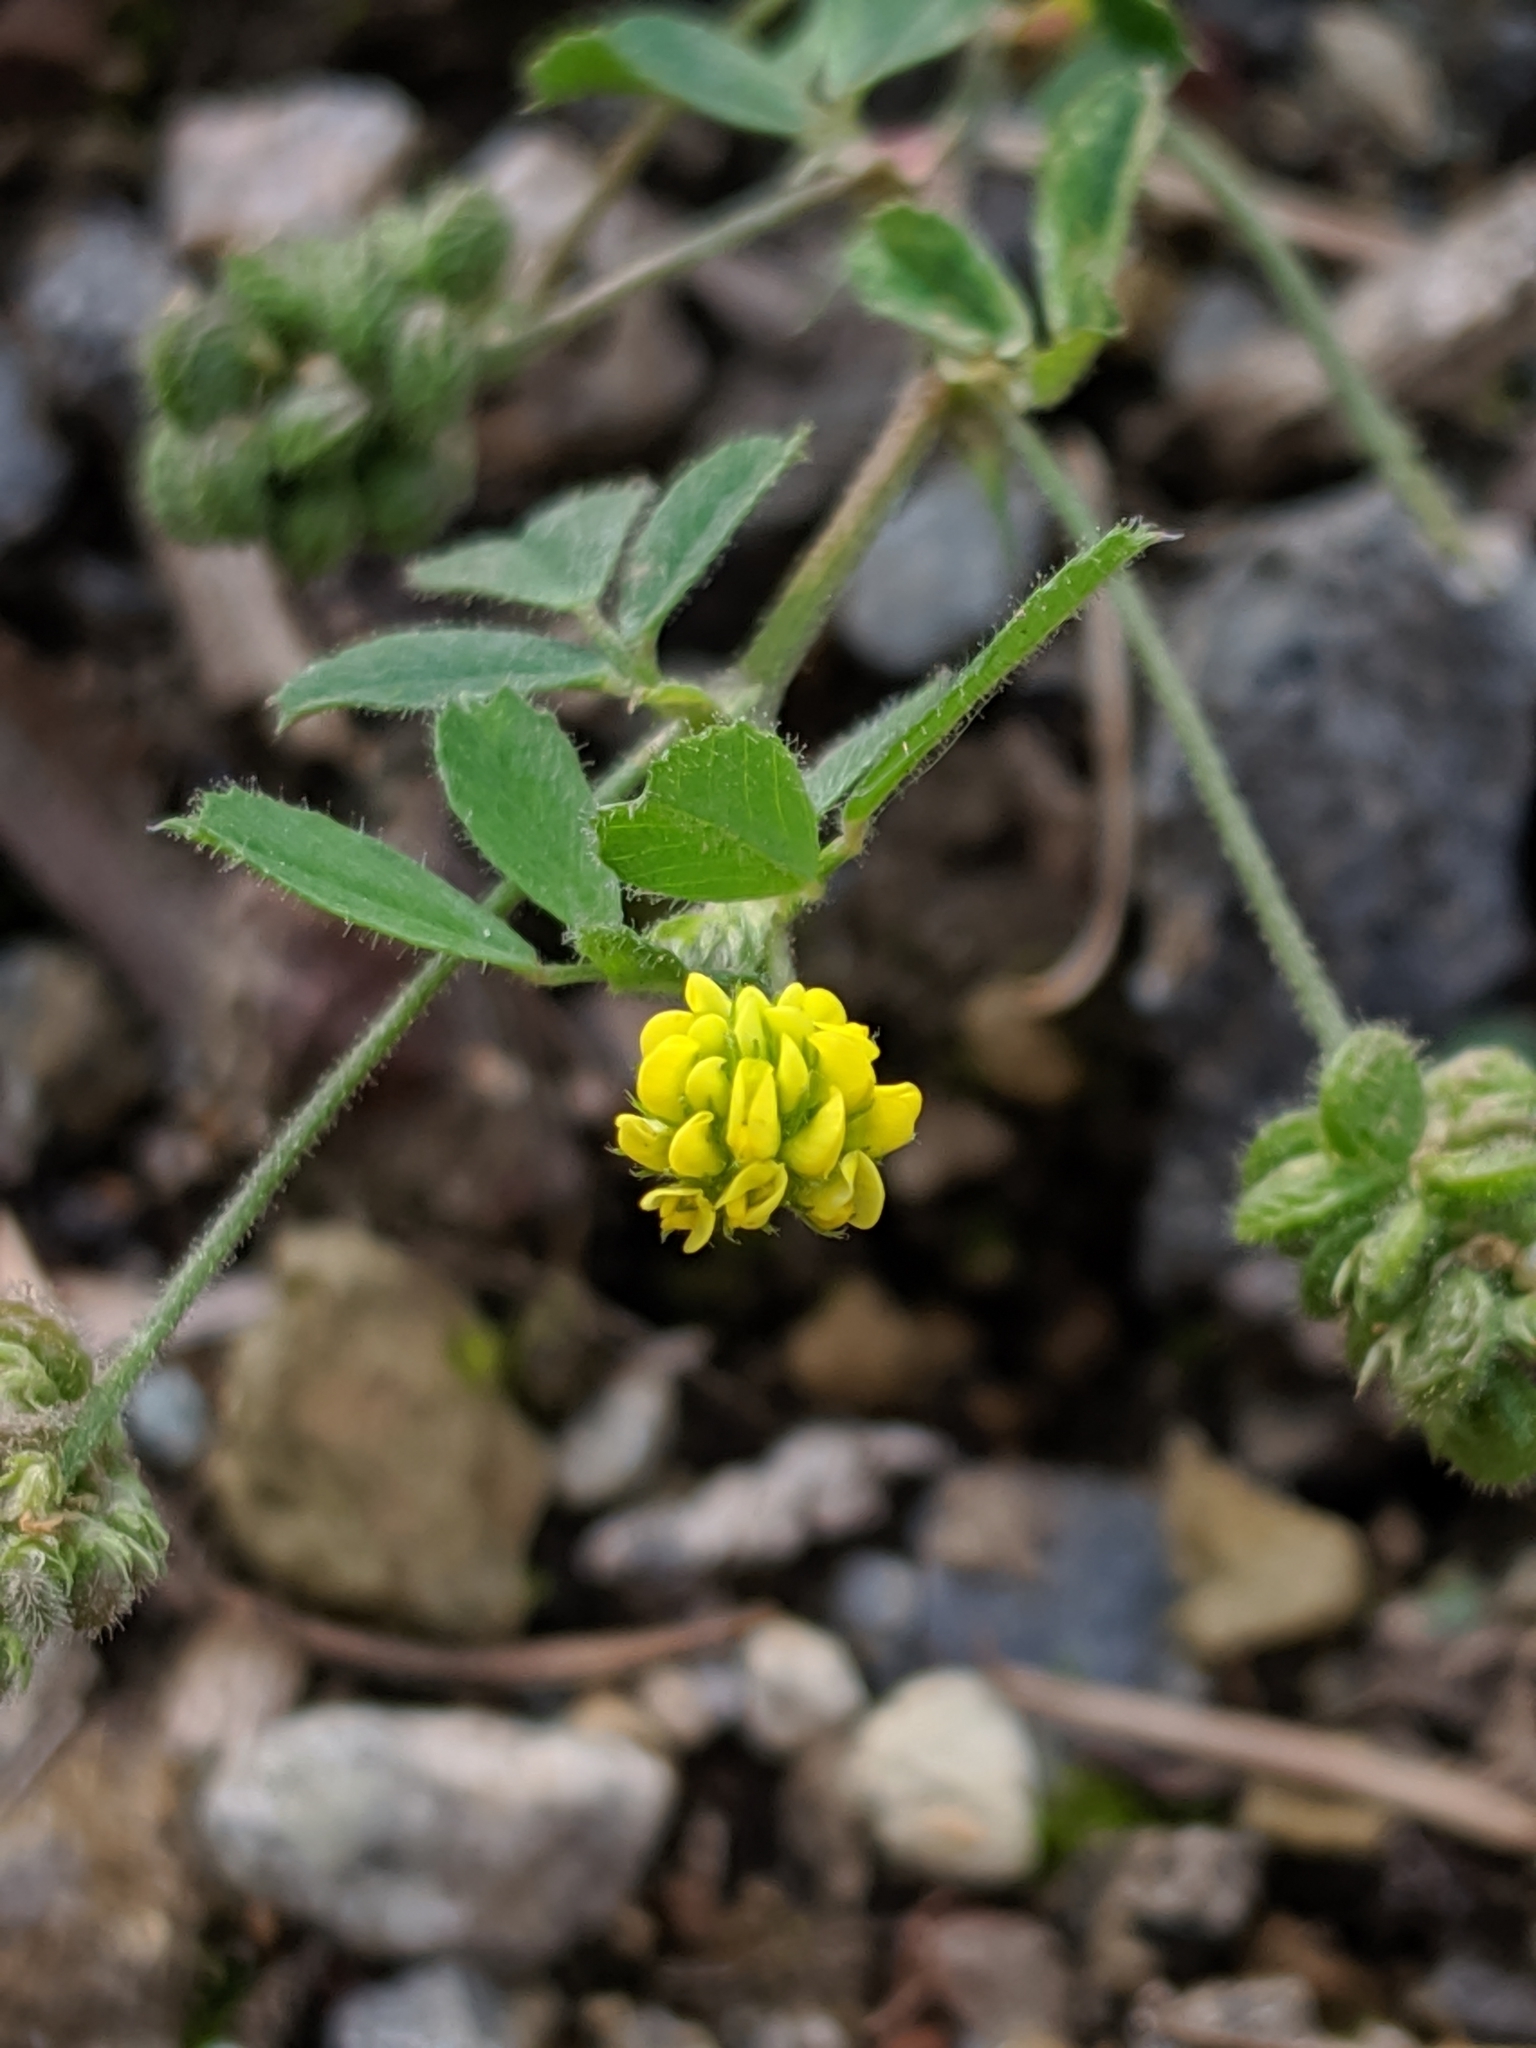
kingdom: Plantae
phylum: Tracheophyta
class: Magnoliopsida
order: Fabales
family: Fabaceae
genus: Medicago
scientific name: Medicago lupulina
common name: Black medick
